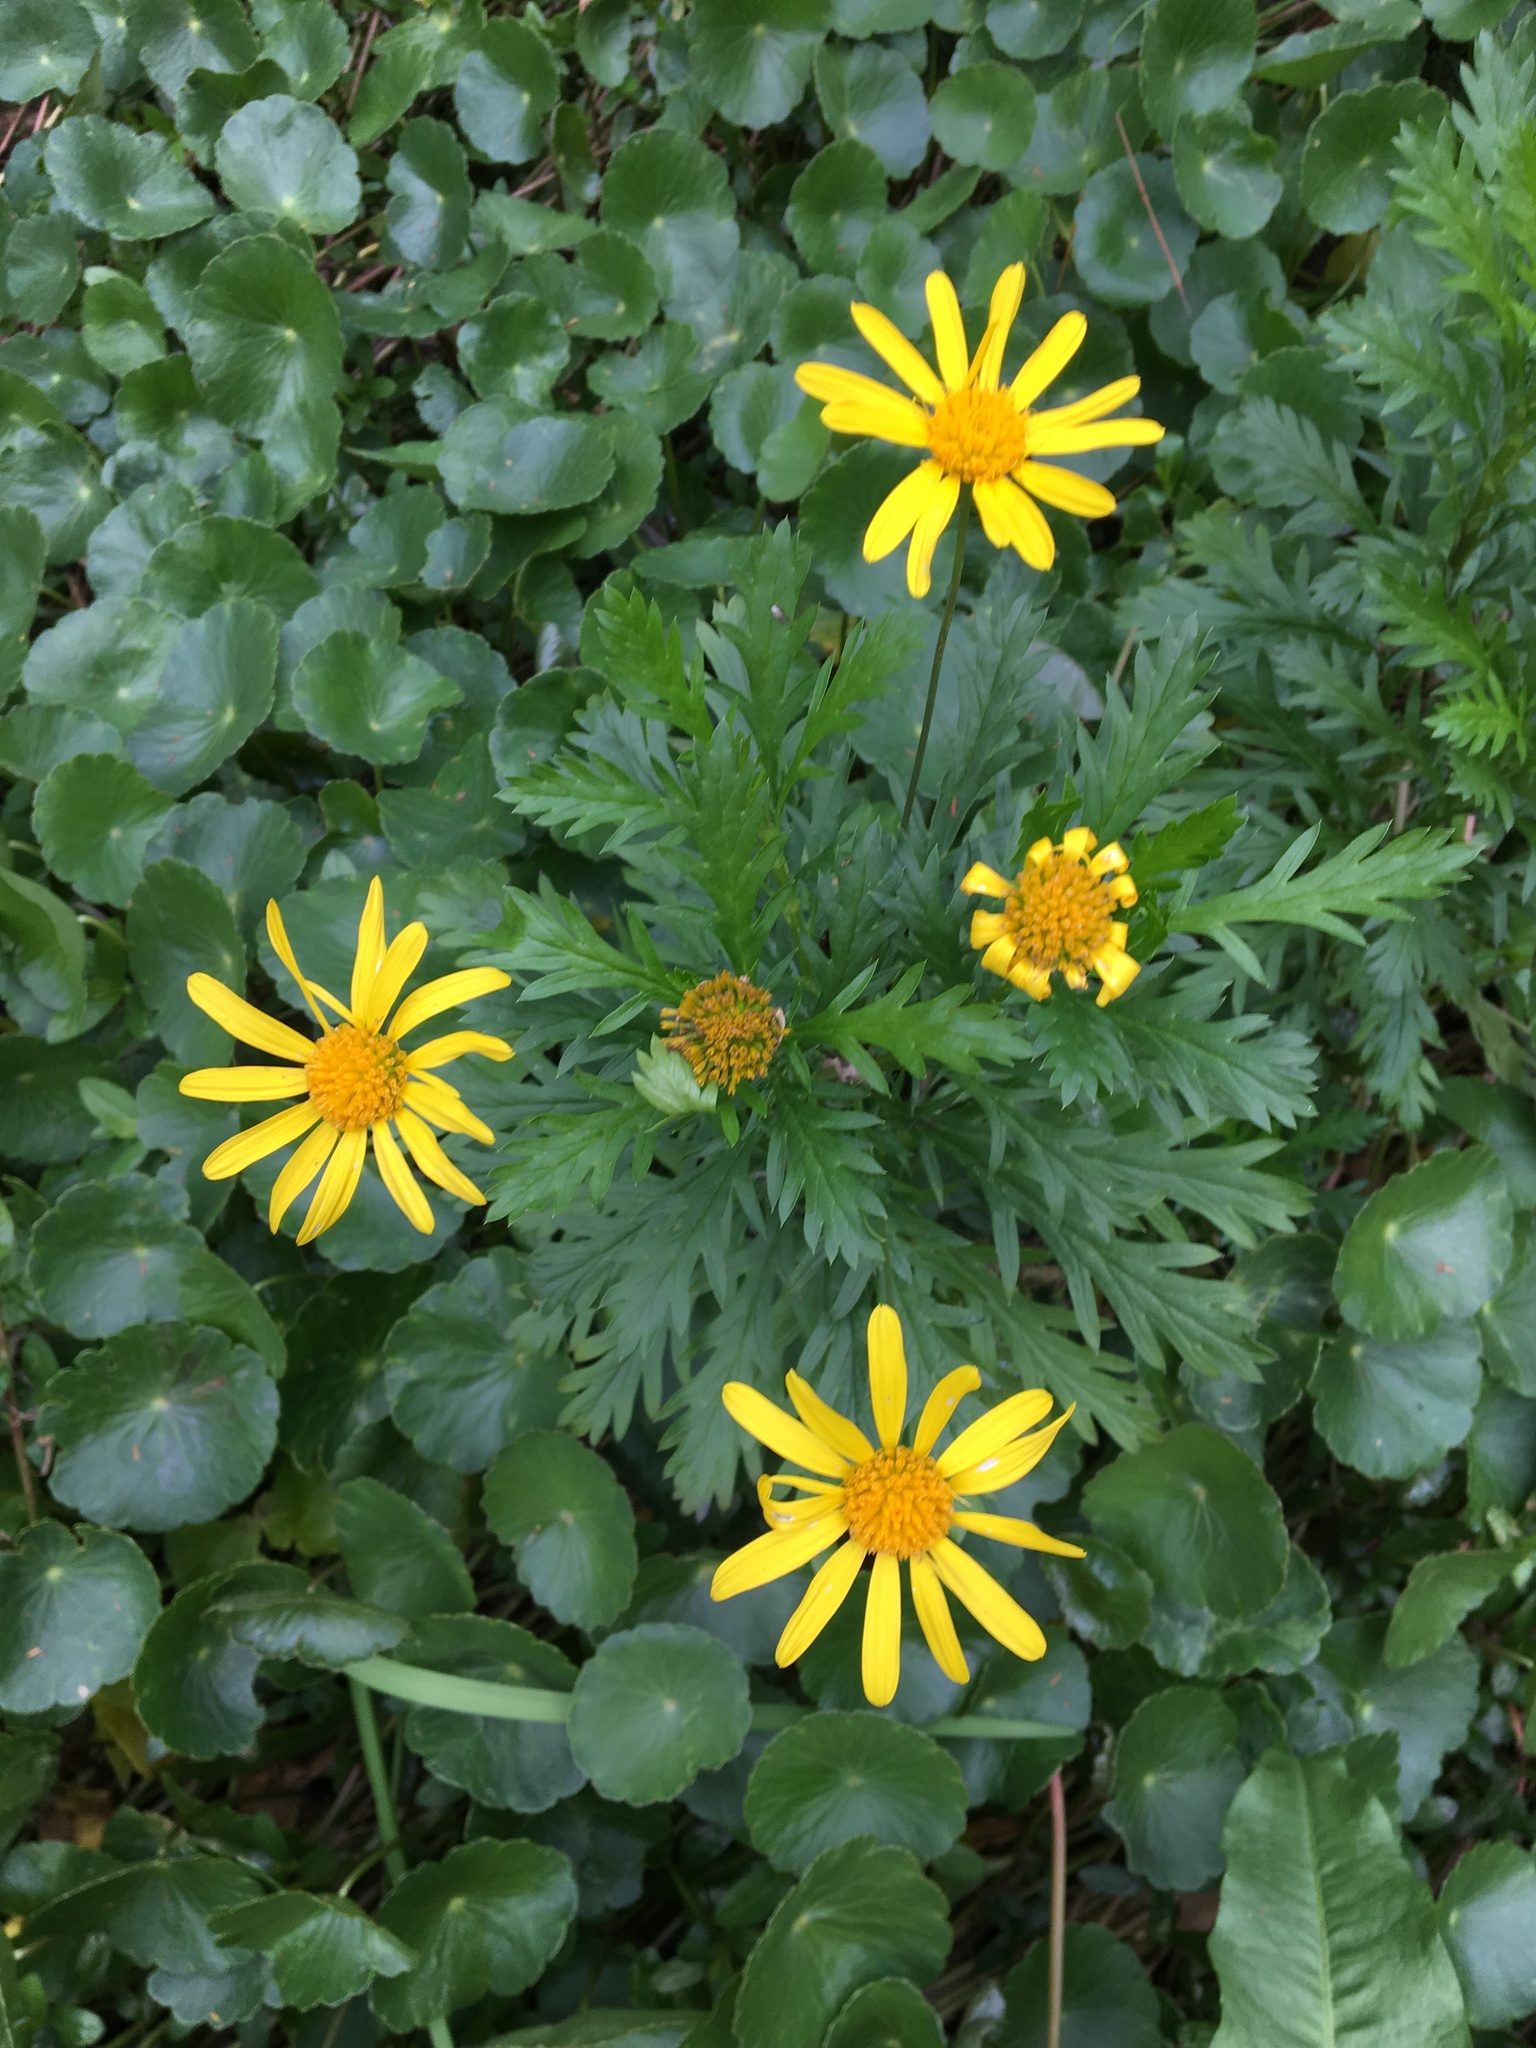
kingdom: Plantae
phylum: Tracheophyta
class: Magnoliopsida
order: Asterales
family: Asteraceae
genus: Euryops
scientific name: Euryops chrysanthemoides
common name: Bull's eye
